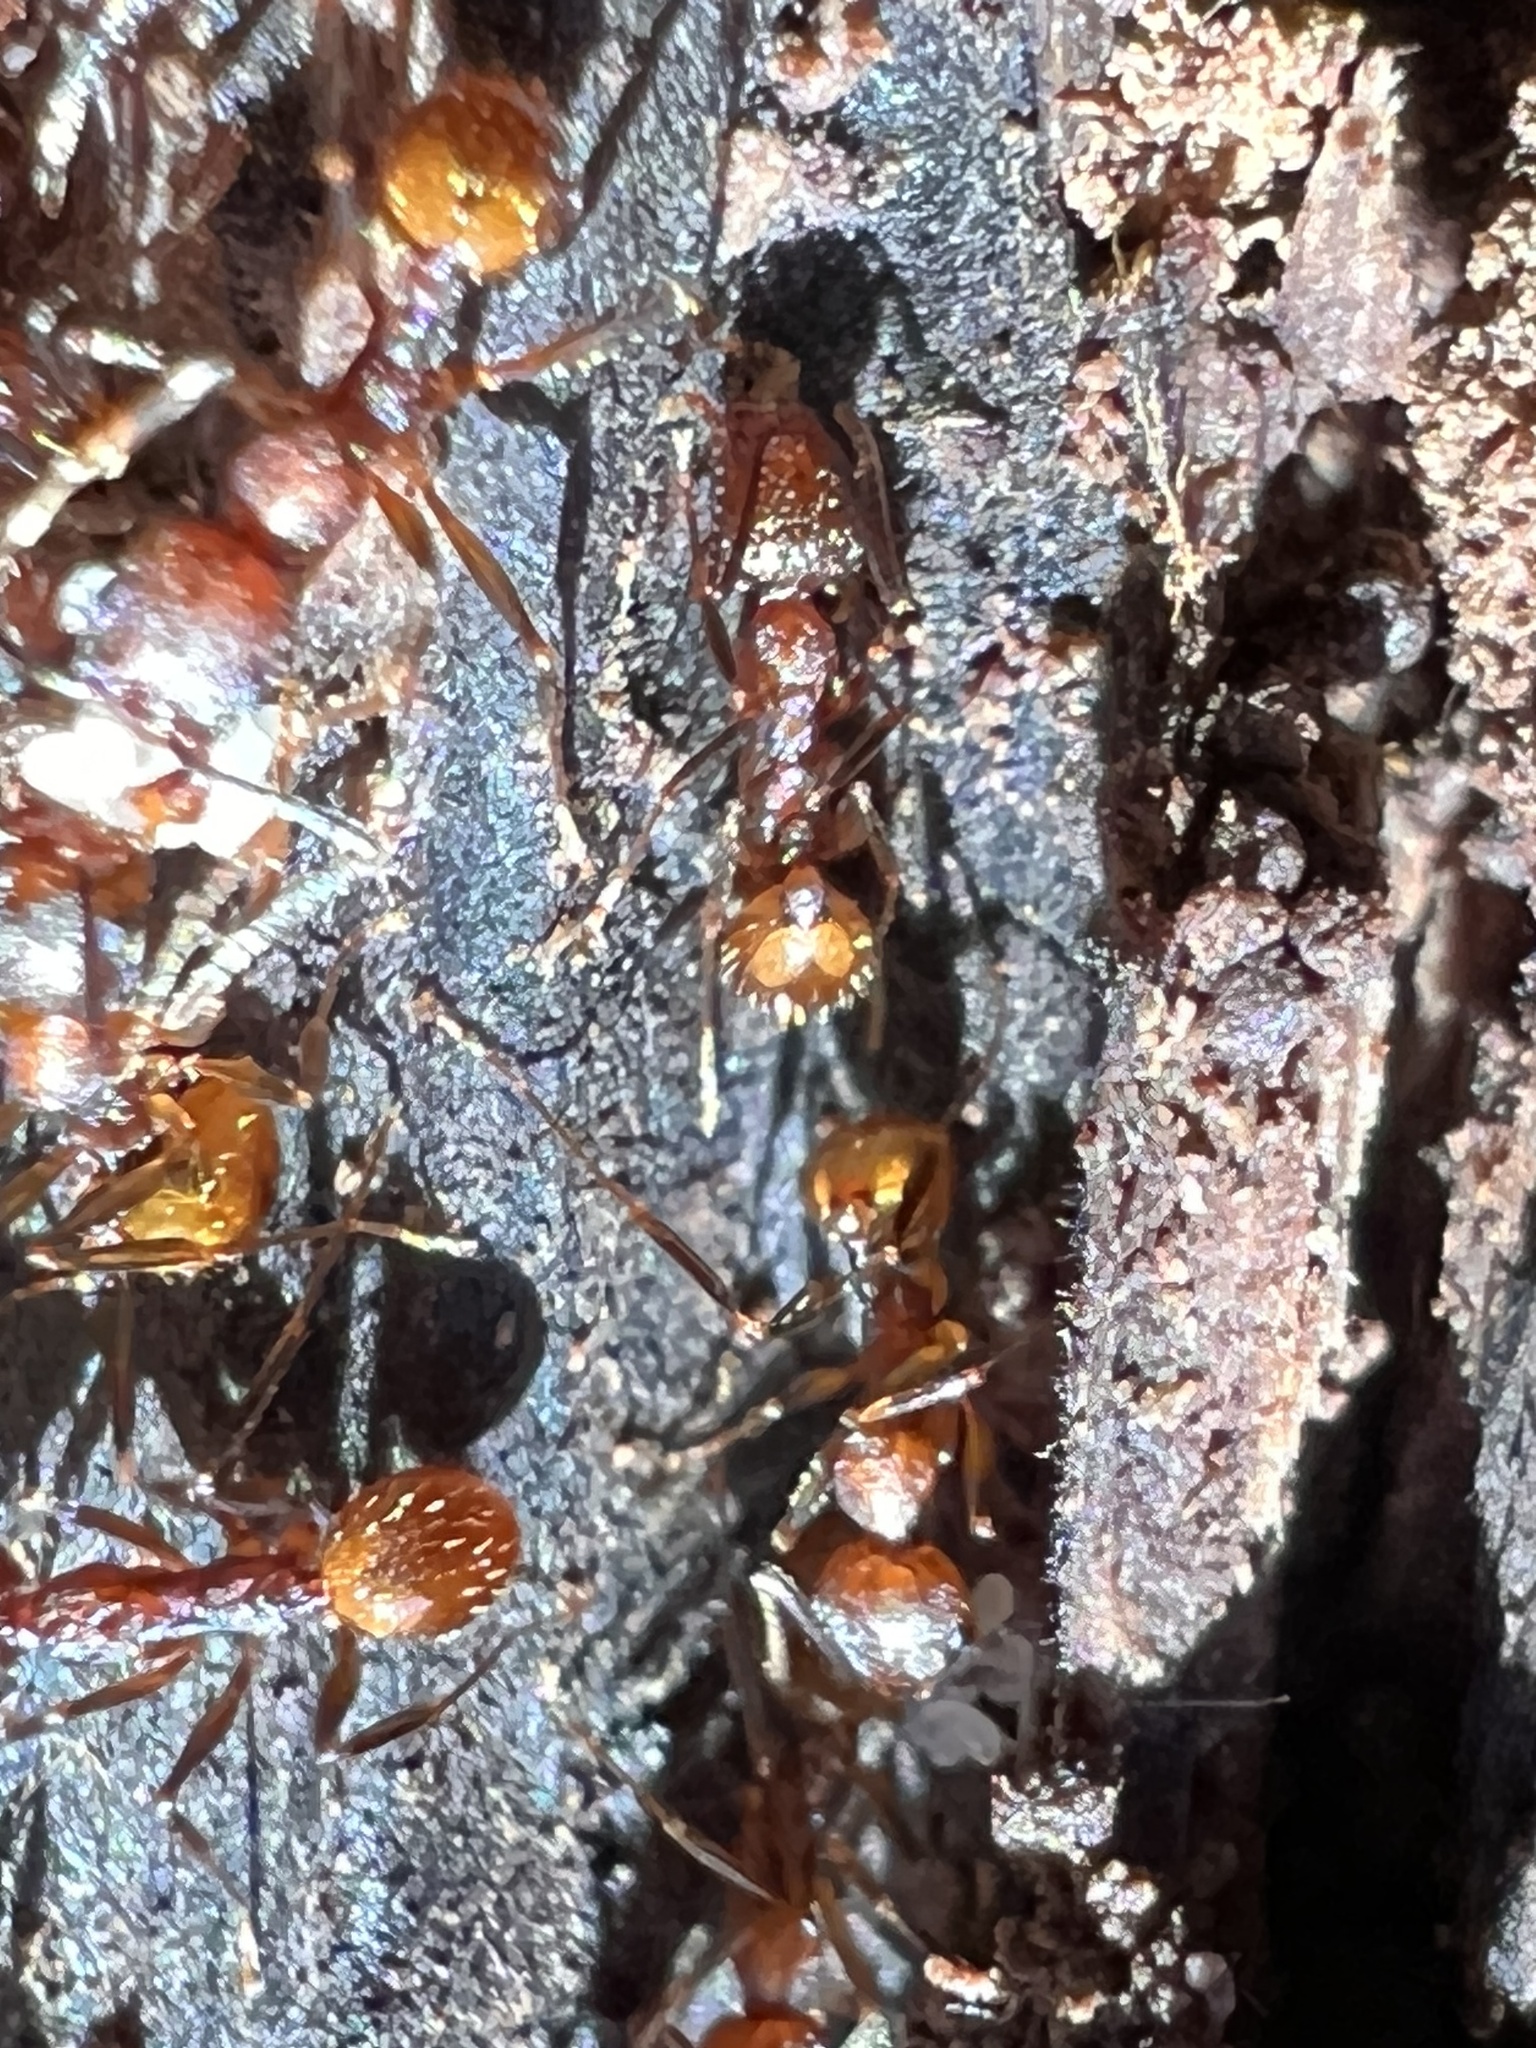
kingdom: Animalia
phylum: Arthropoda
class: Insecta
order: Hymenoptera
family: Formicidae
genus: Aphaenogaster
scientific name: Aphaenogaster fulva
